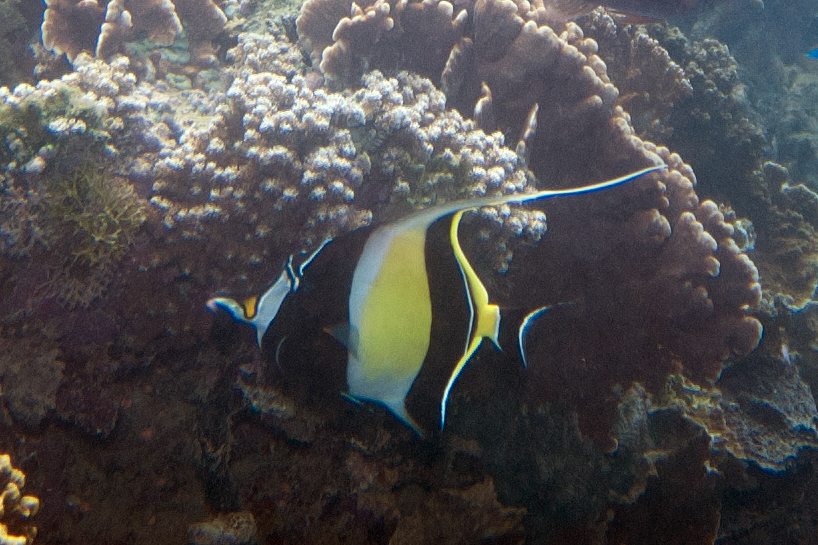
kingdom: Animalia
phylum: Chordata
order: Perciformes
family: Zanclidae
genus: Zanclus
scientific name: Zanclus cornutus
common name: Moorish idol
